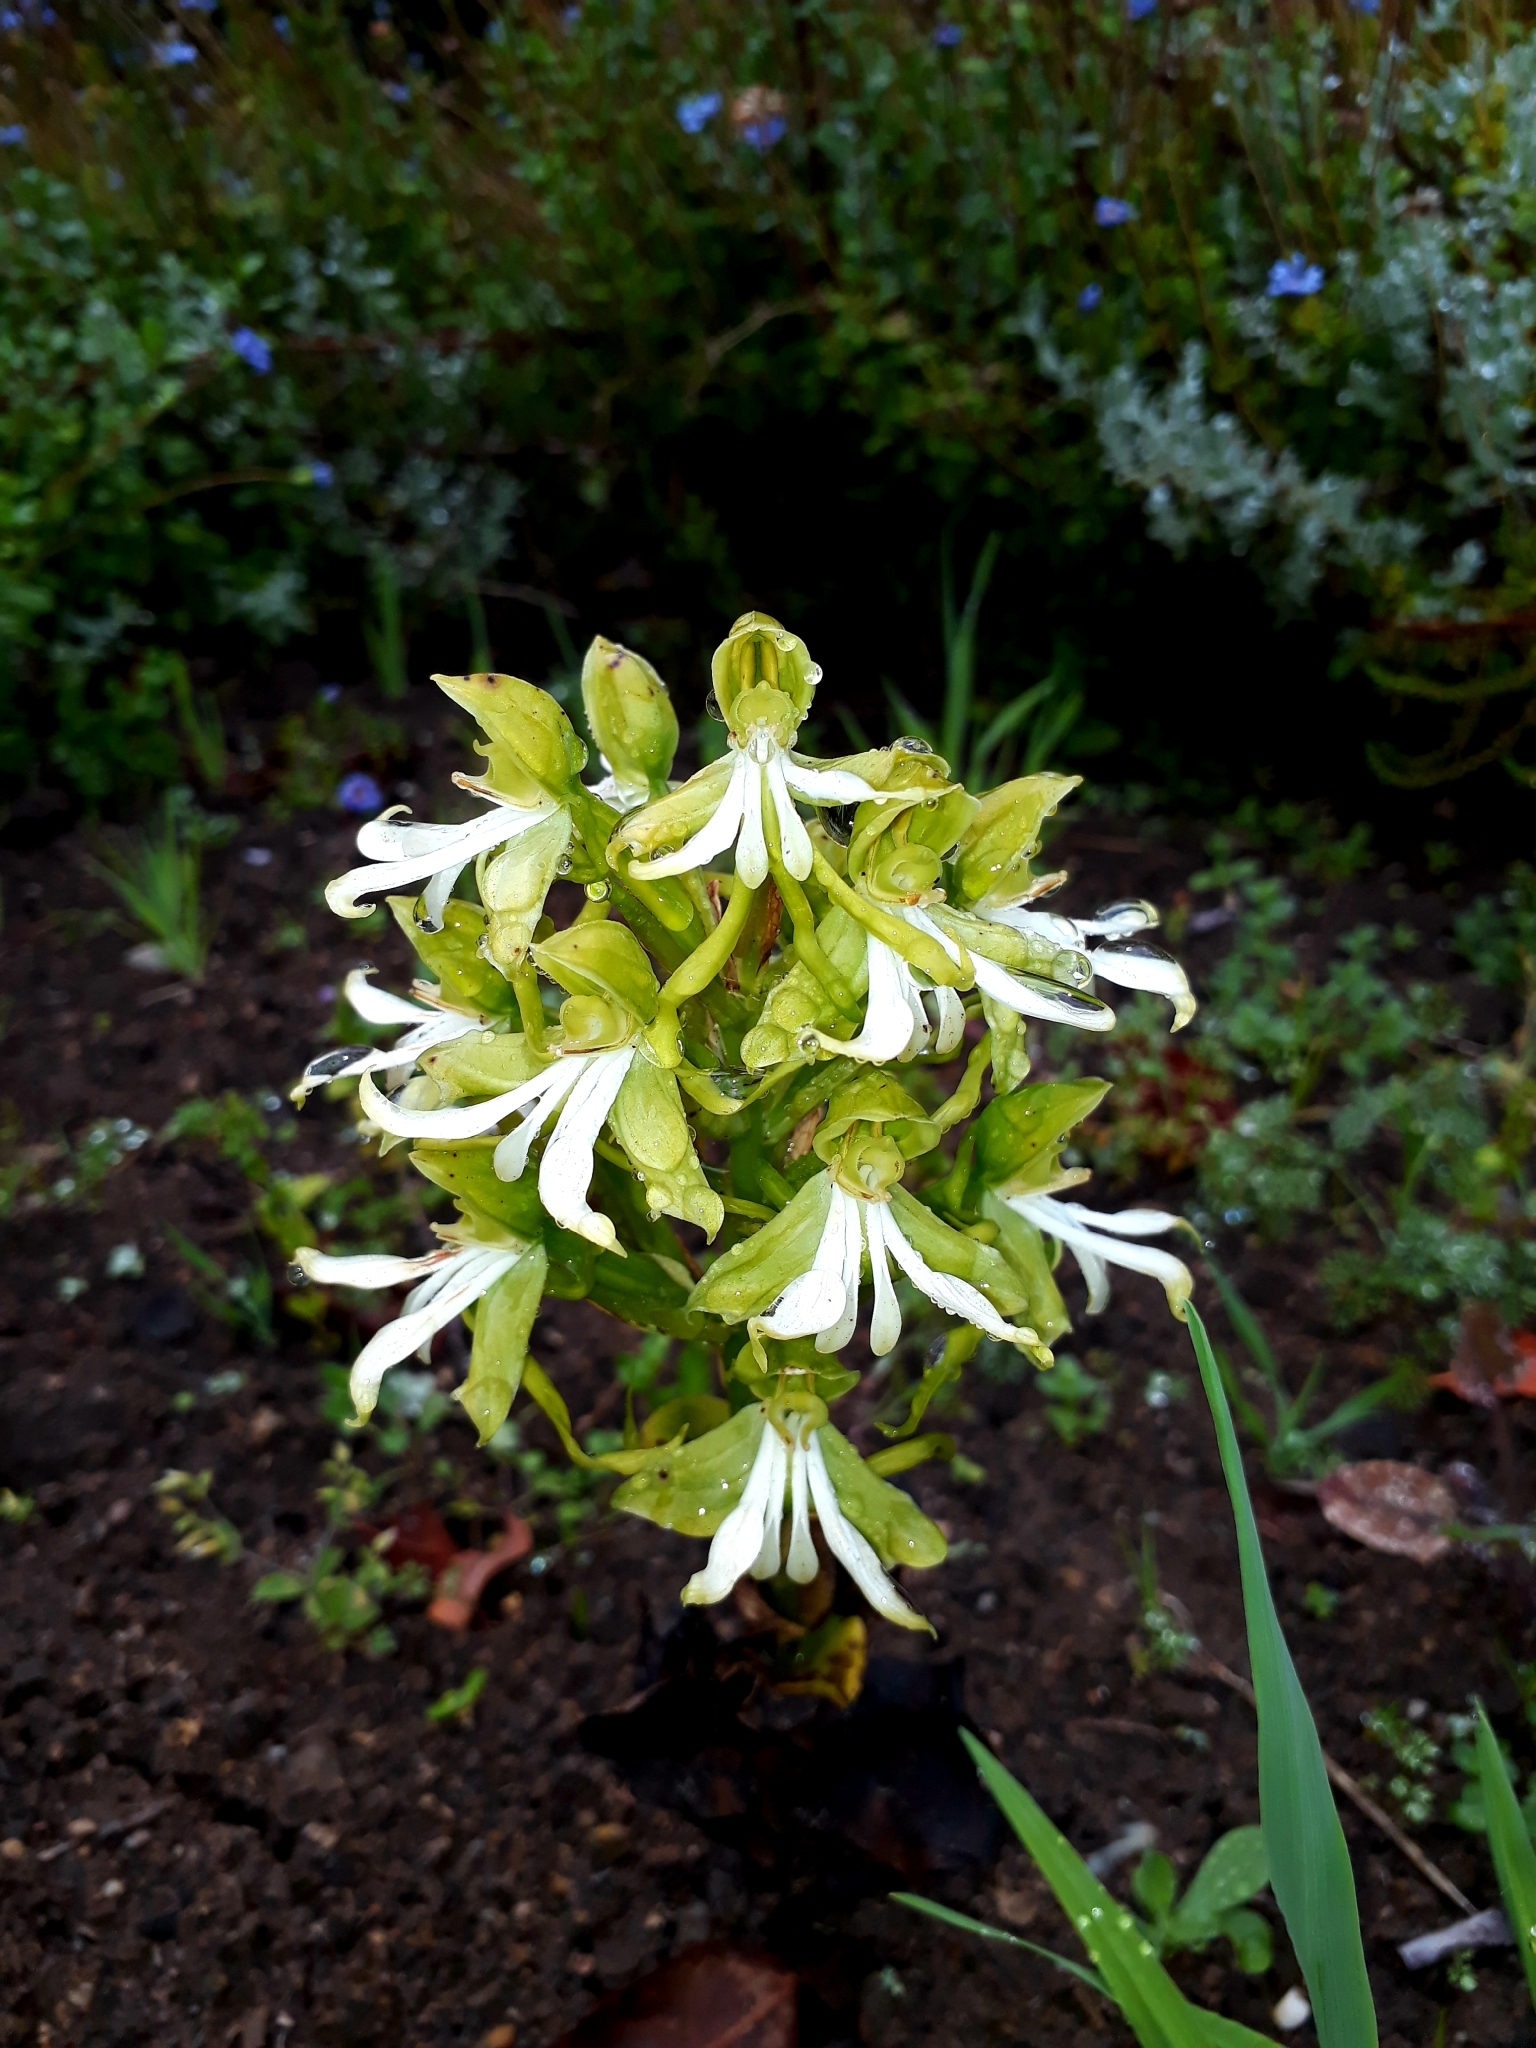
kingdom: Plantae
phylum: Tracheophyta
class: Liliopsida
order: Asparagales
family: Orchidaceae
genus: Bonatea
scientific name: Bonatea speciosa
